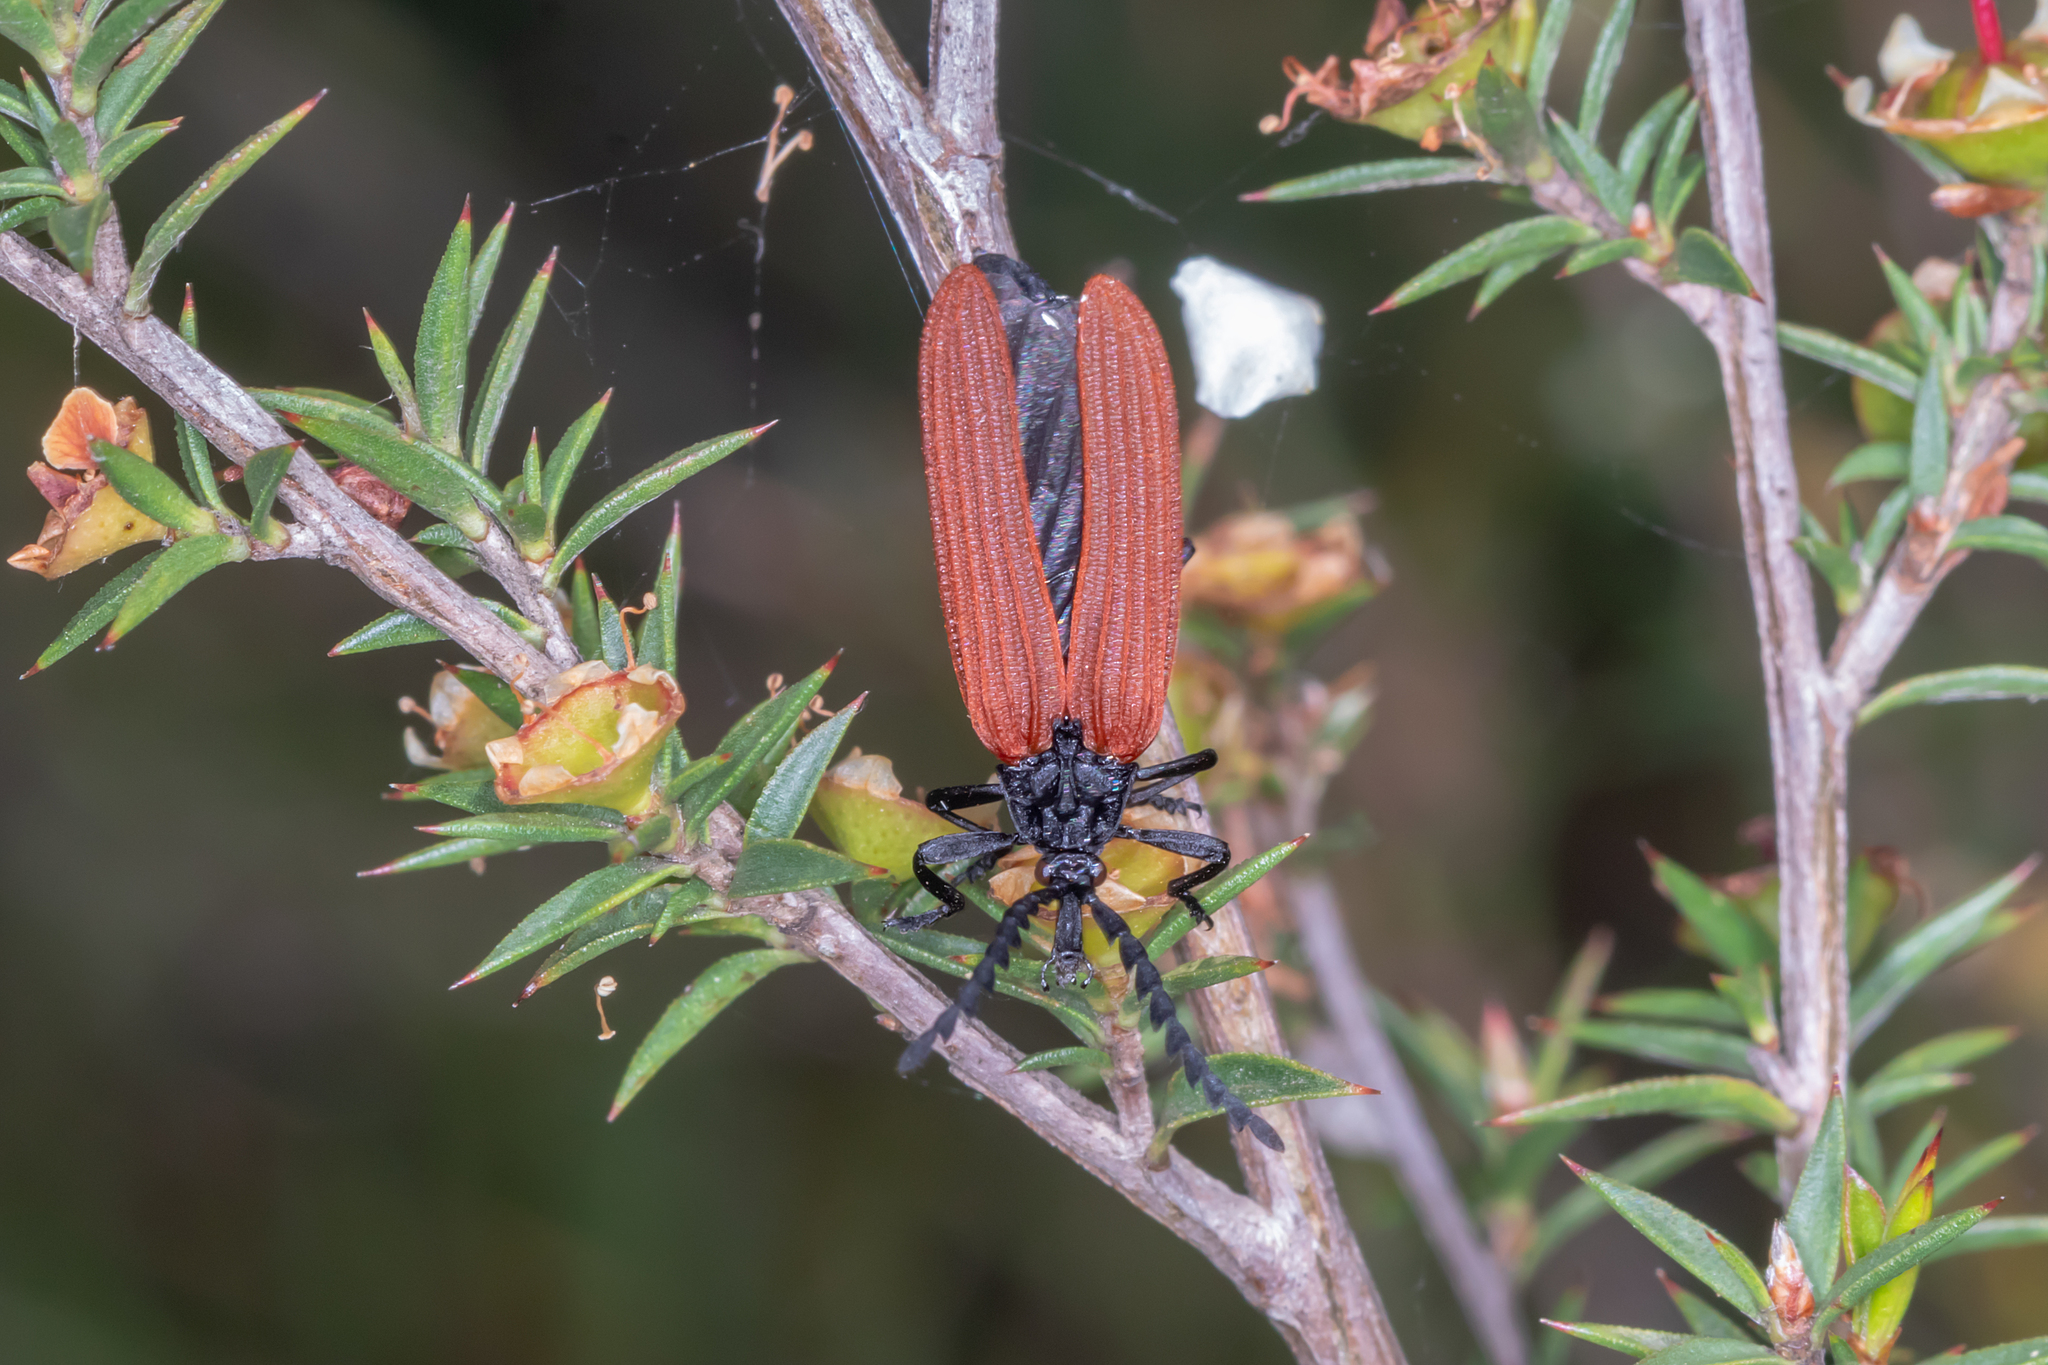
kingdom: Animalia
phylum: Arthropoda
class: Insecta
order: Coleoptera
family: Lycidae
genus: Porrostoma
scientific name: Porrostoma rhipidium
